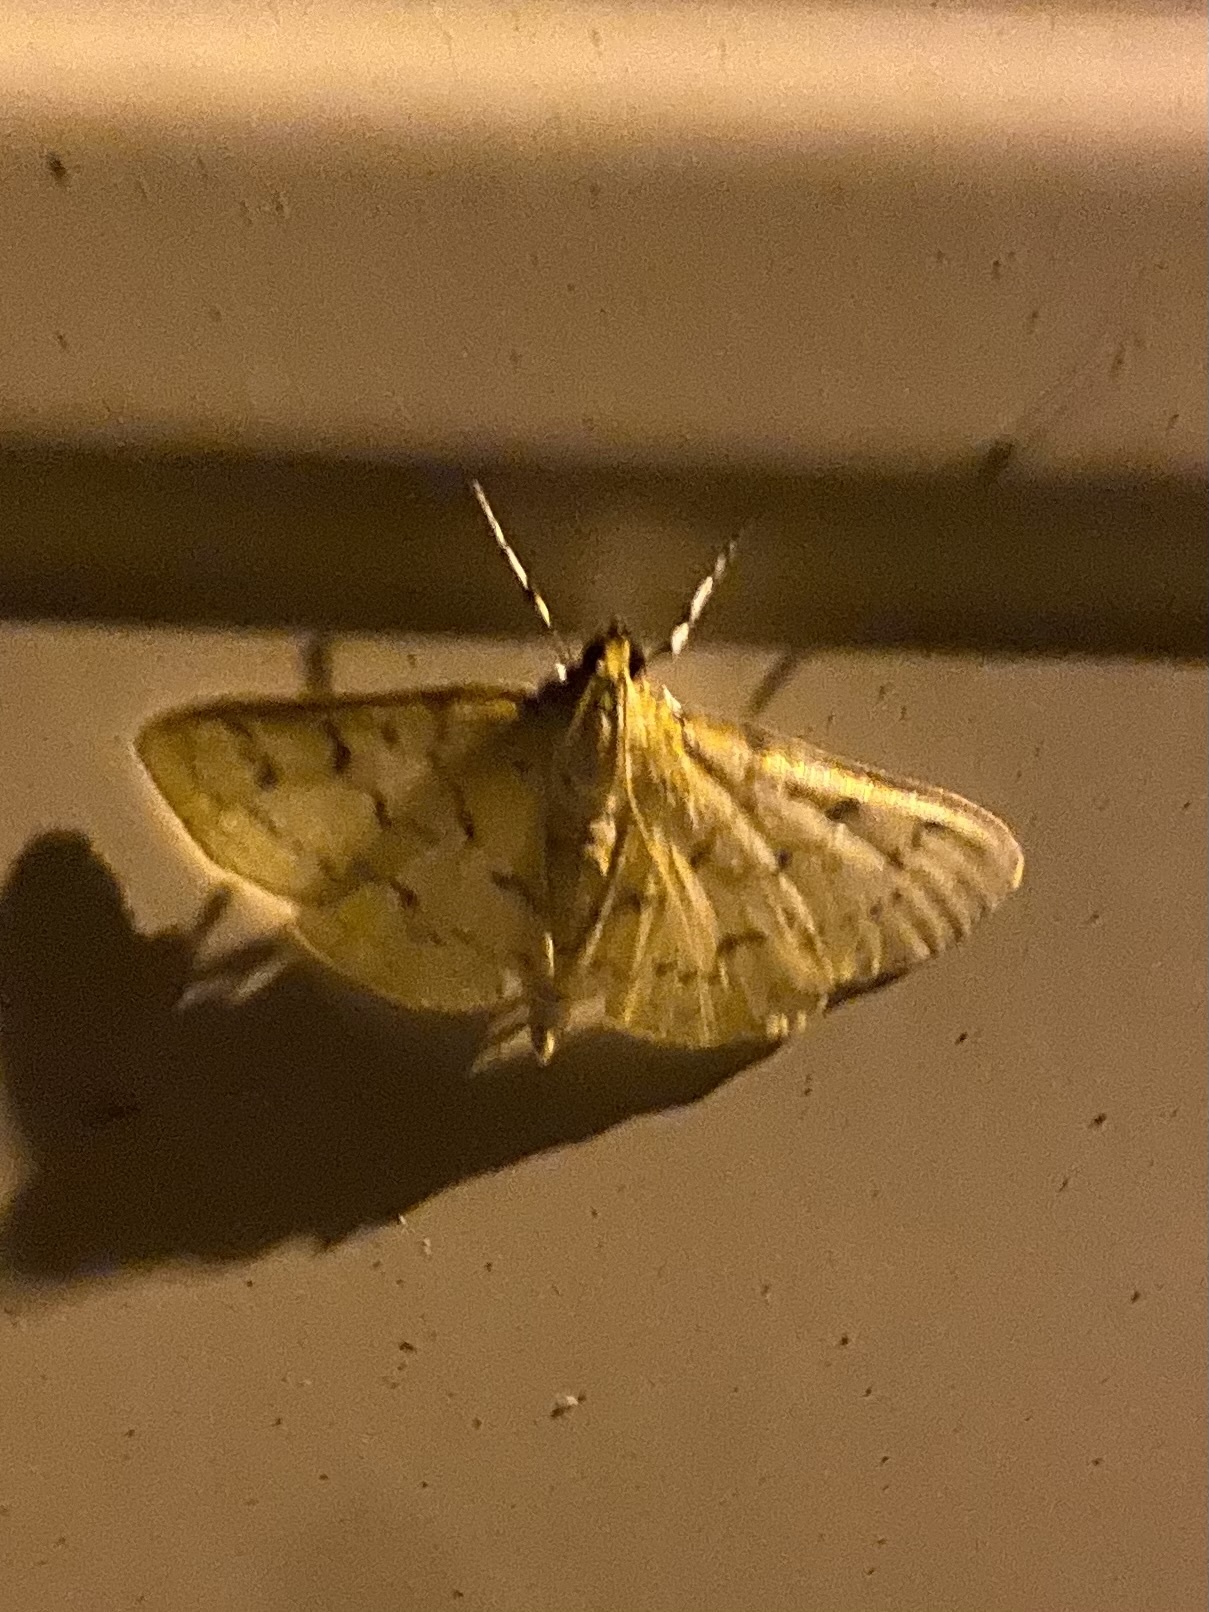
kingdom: Animalia
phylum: Arthropoda
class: Insecta
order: Lepidoptera
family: Crambidae
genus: Polygrammodes
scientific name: Polygrammodes flavidalis
